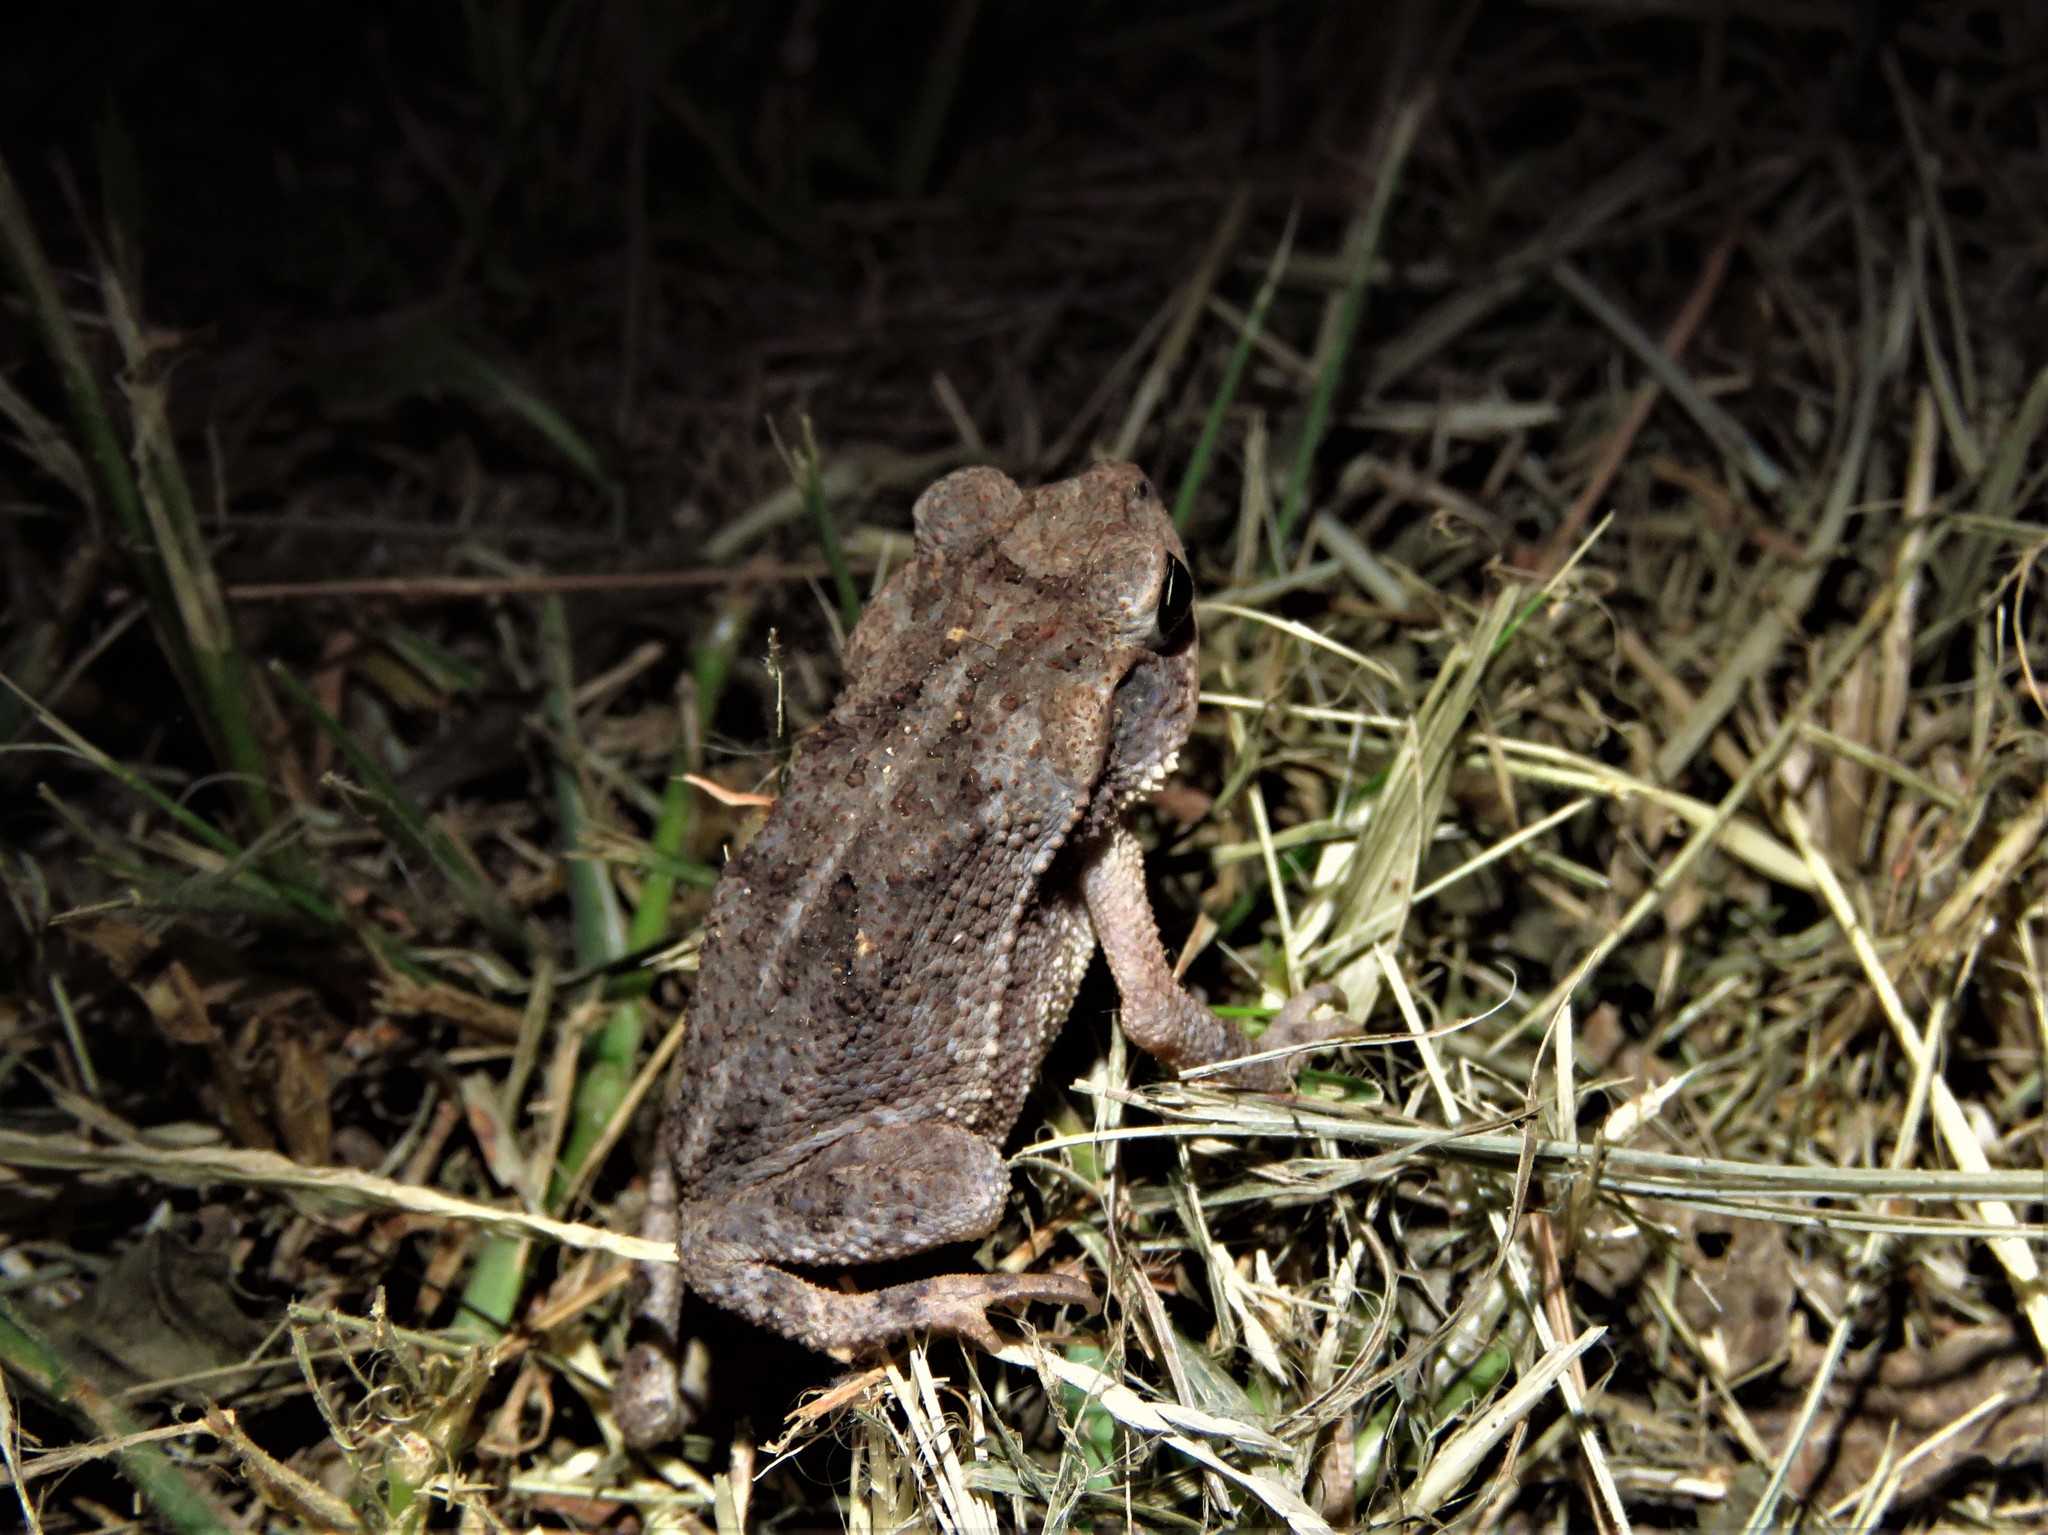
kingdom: Animalia
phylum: Chordata
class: Amphibia
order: Anura
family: Bufonidae
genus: Incilius
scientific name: Incilius nebulifer
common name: Gulf coast toad
